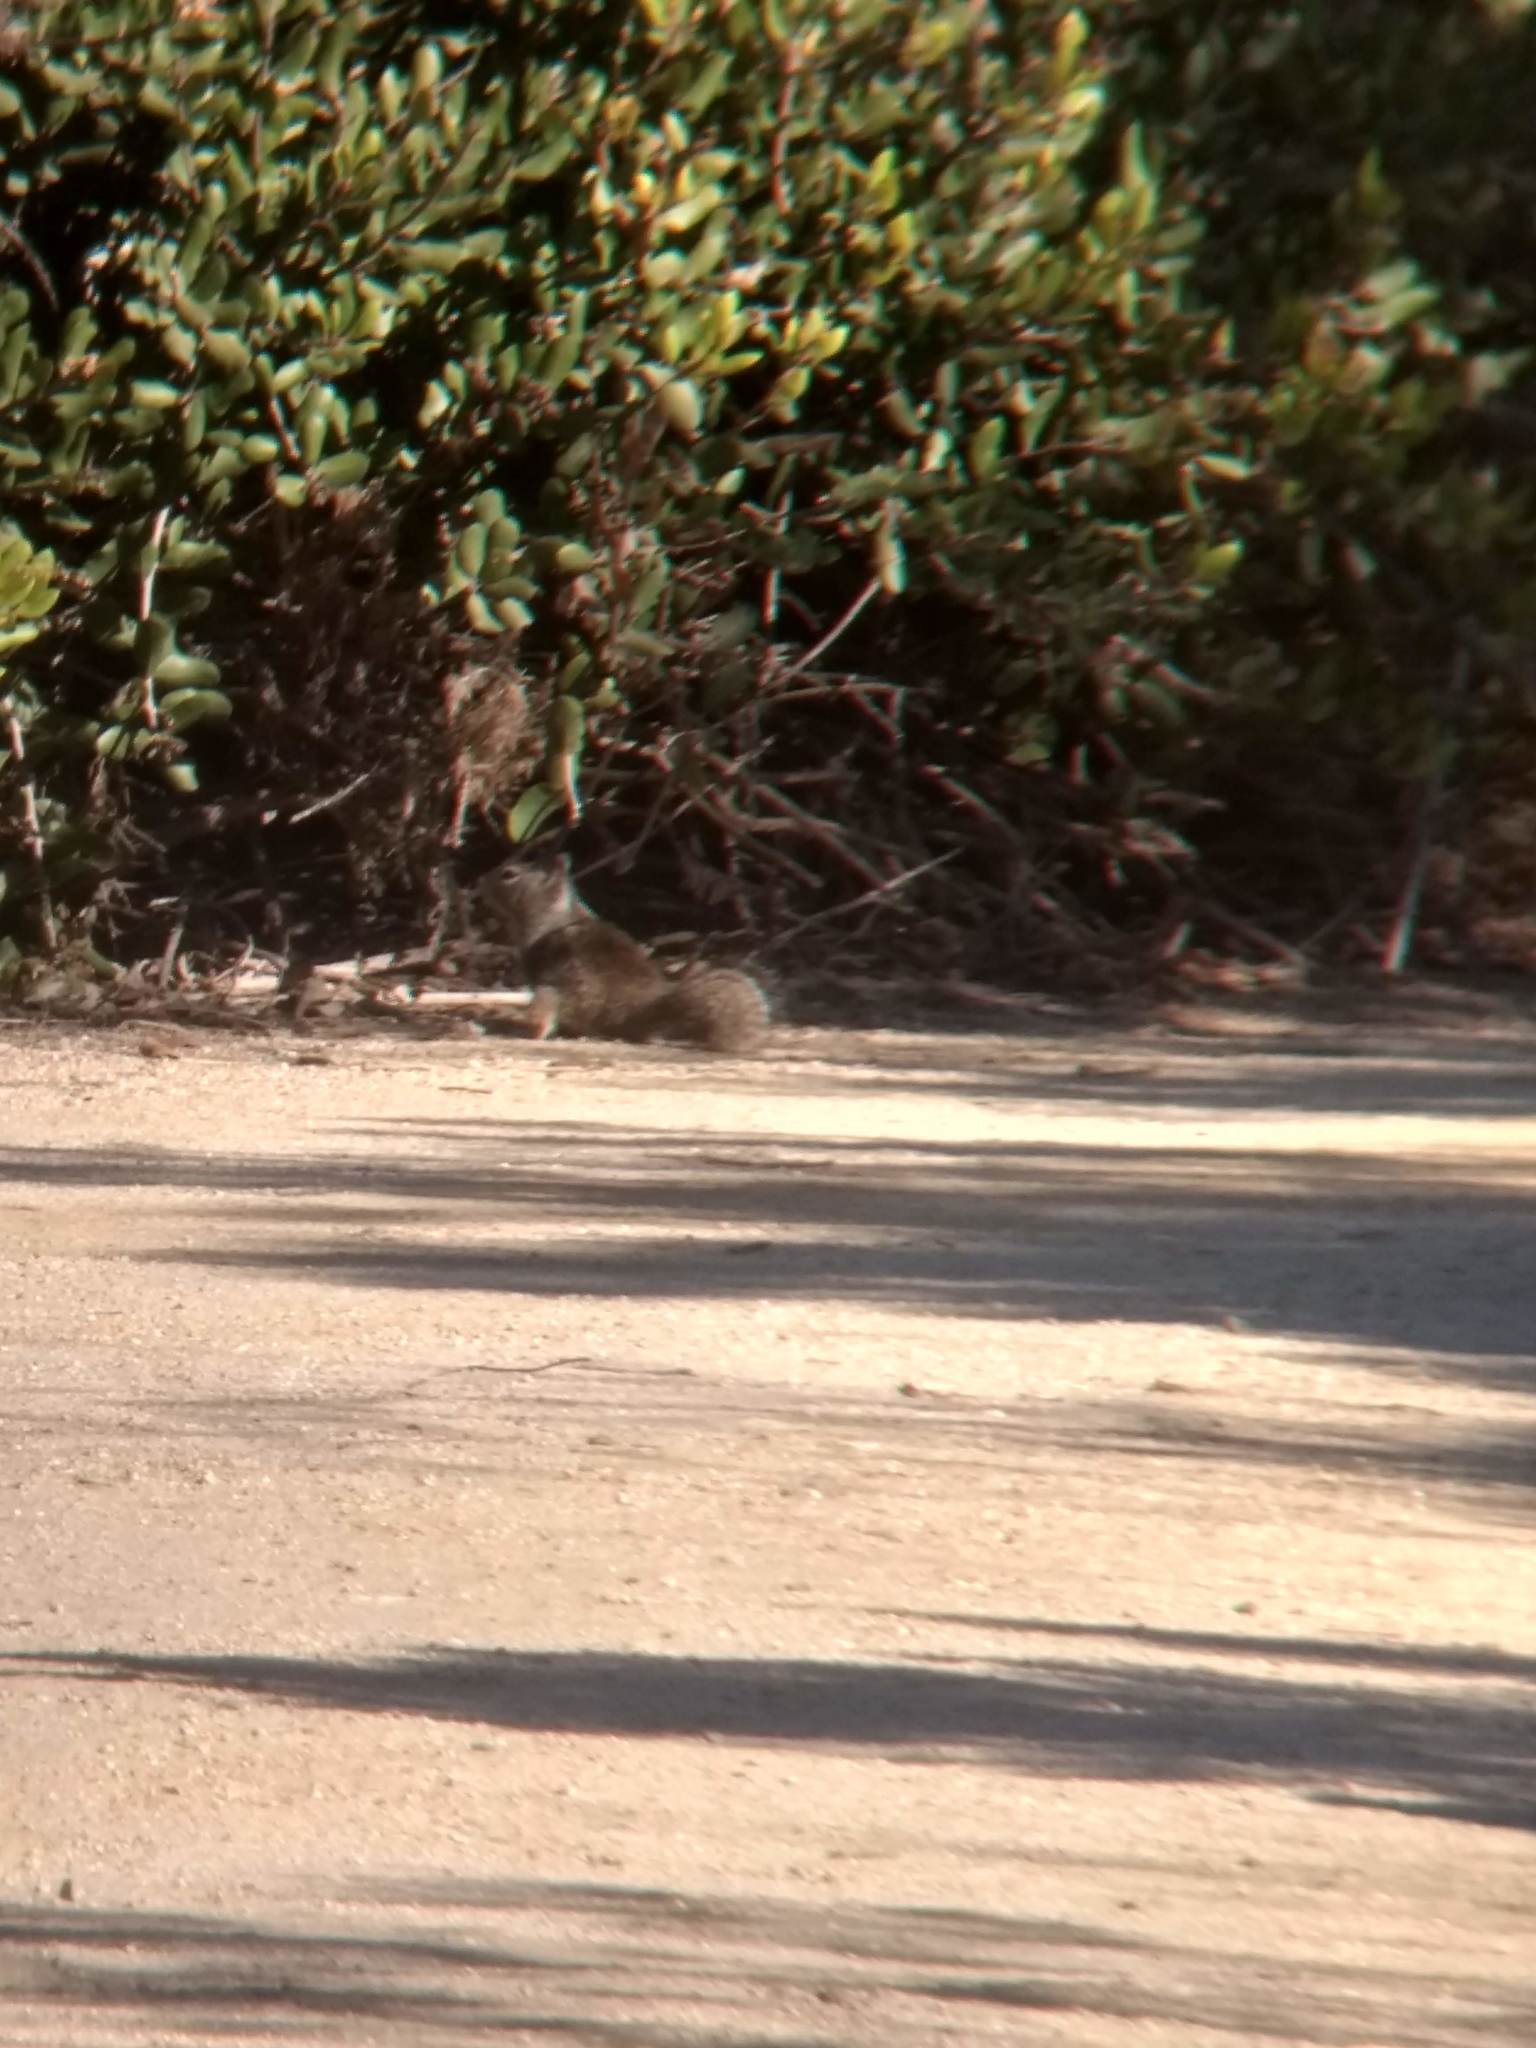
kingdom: Animalia
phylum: Chordata
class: Mammalia
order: Rodentia
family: Sciuridae
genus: Otospermophilus
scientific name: Otospermophilus beecheyi
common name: California ground squirrel
